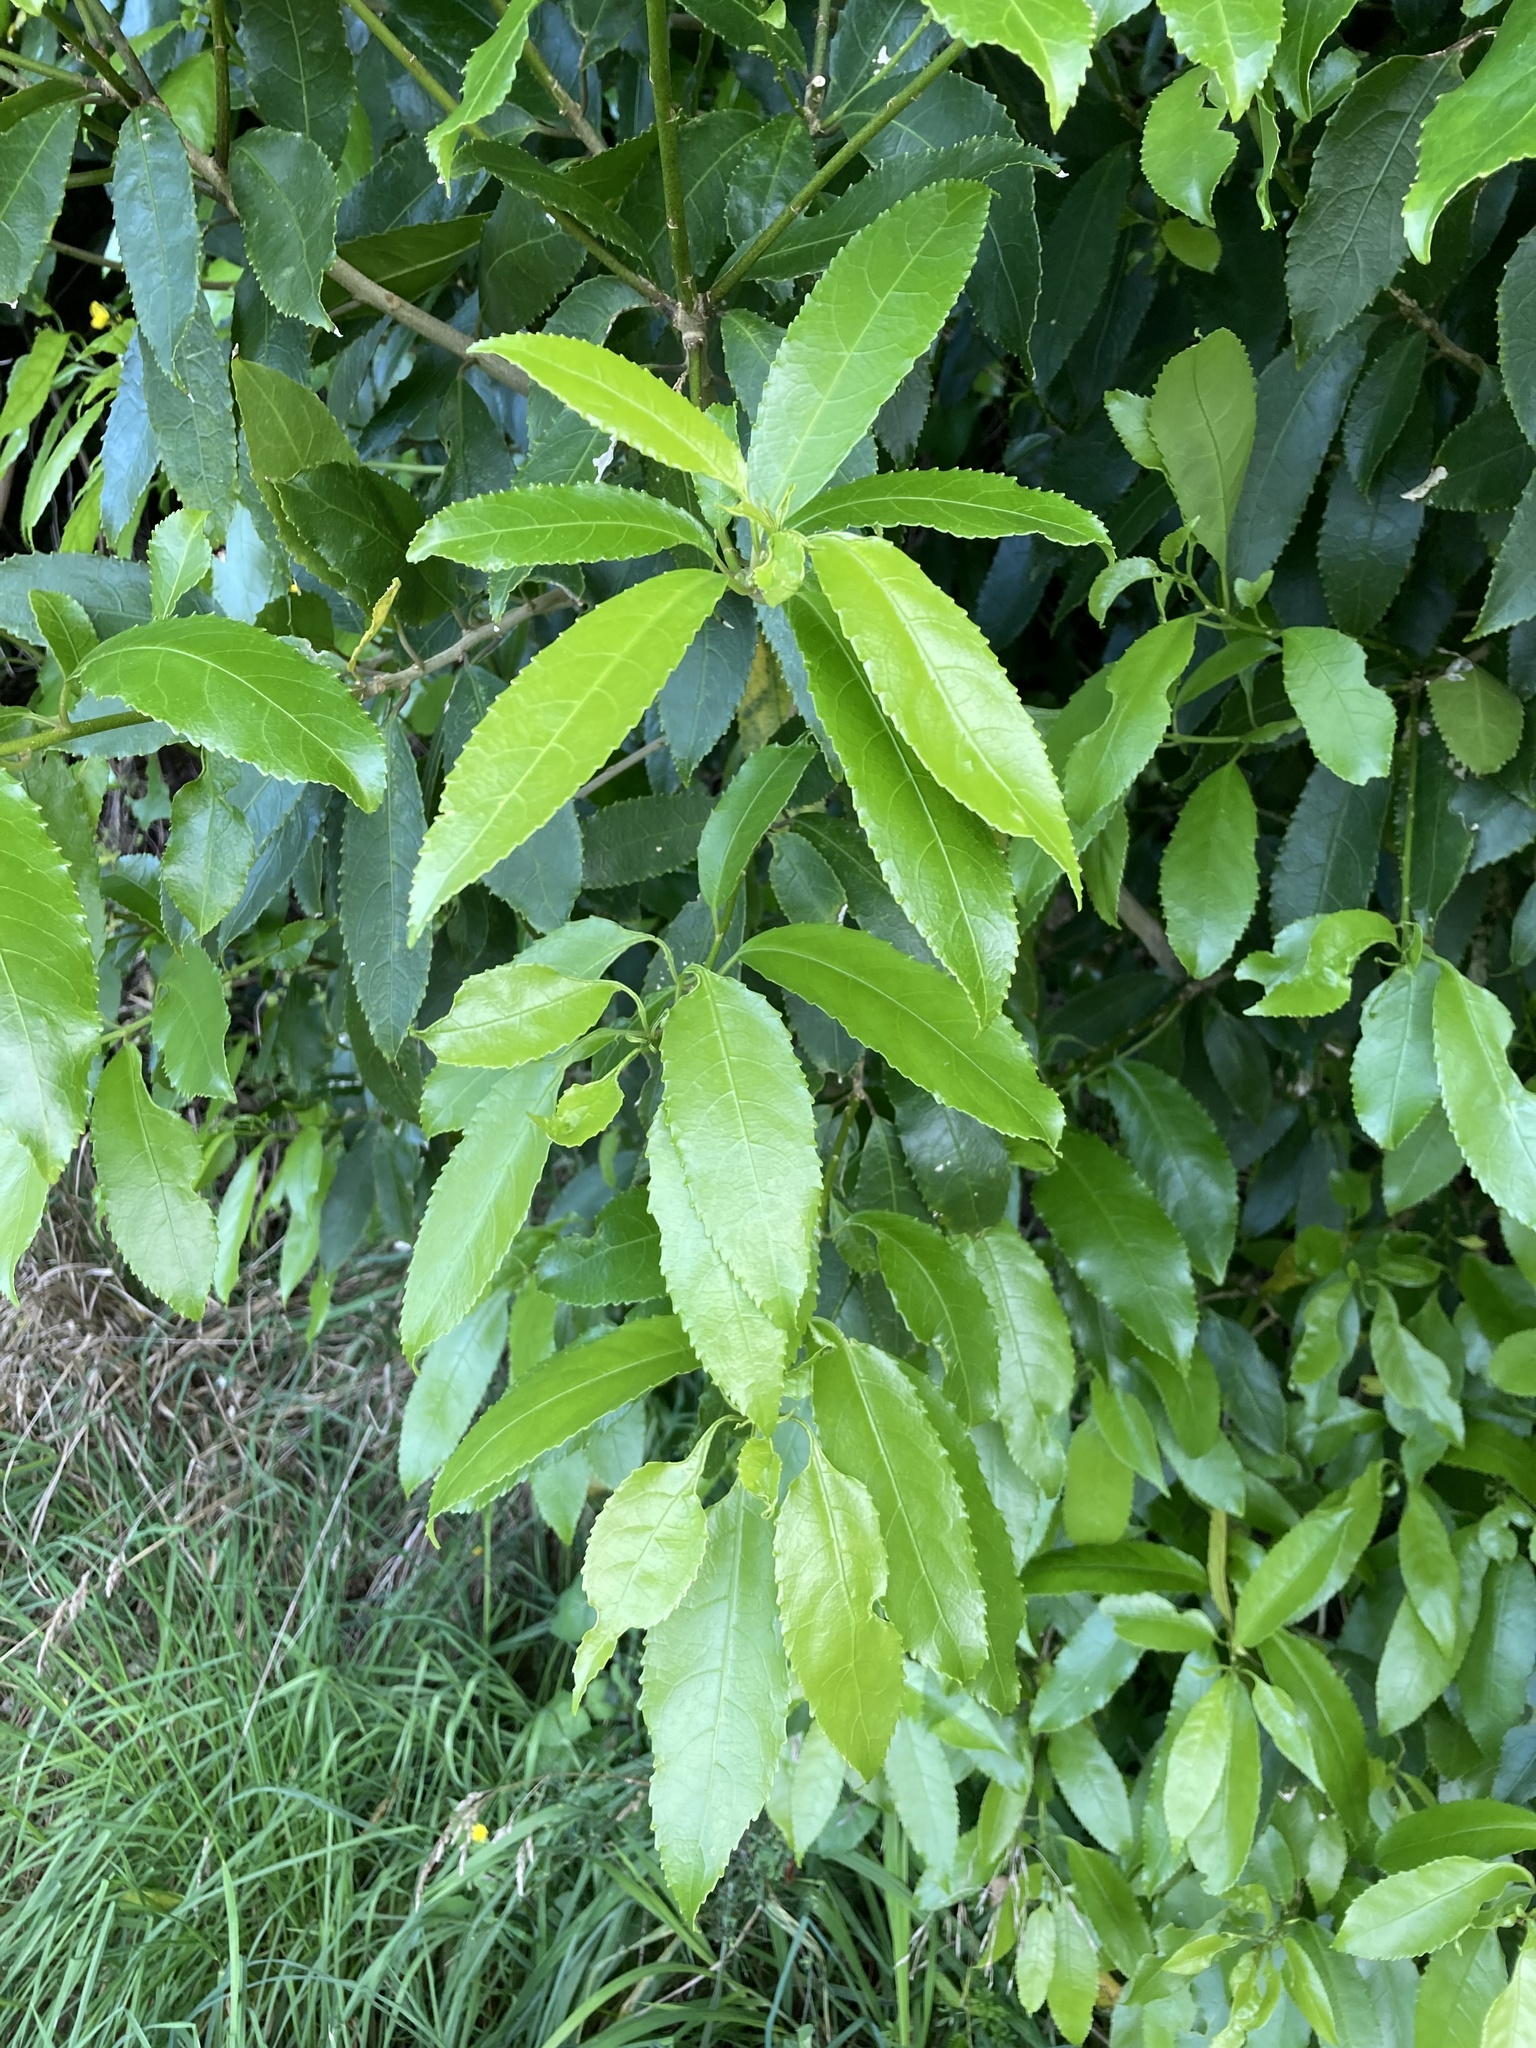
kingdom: Plantae
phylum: Tracheophyta
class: Magnoliopsida
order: Malpighiales
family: Violaceae
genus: Melicytus
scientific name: Melicytus ramiflorus
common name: Mahoe
